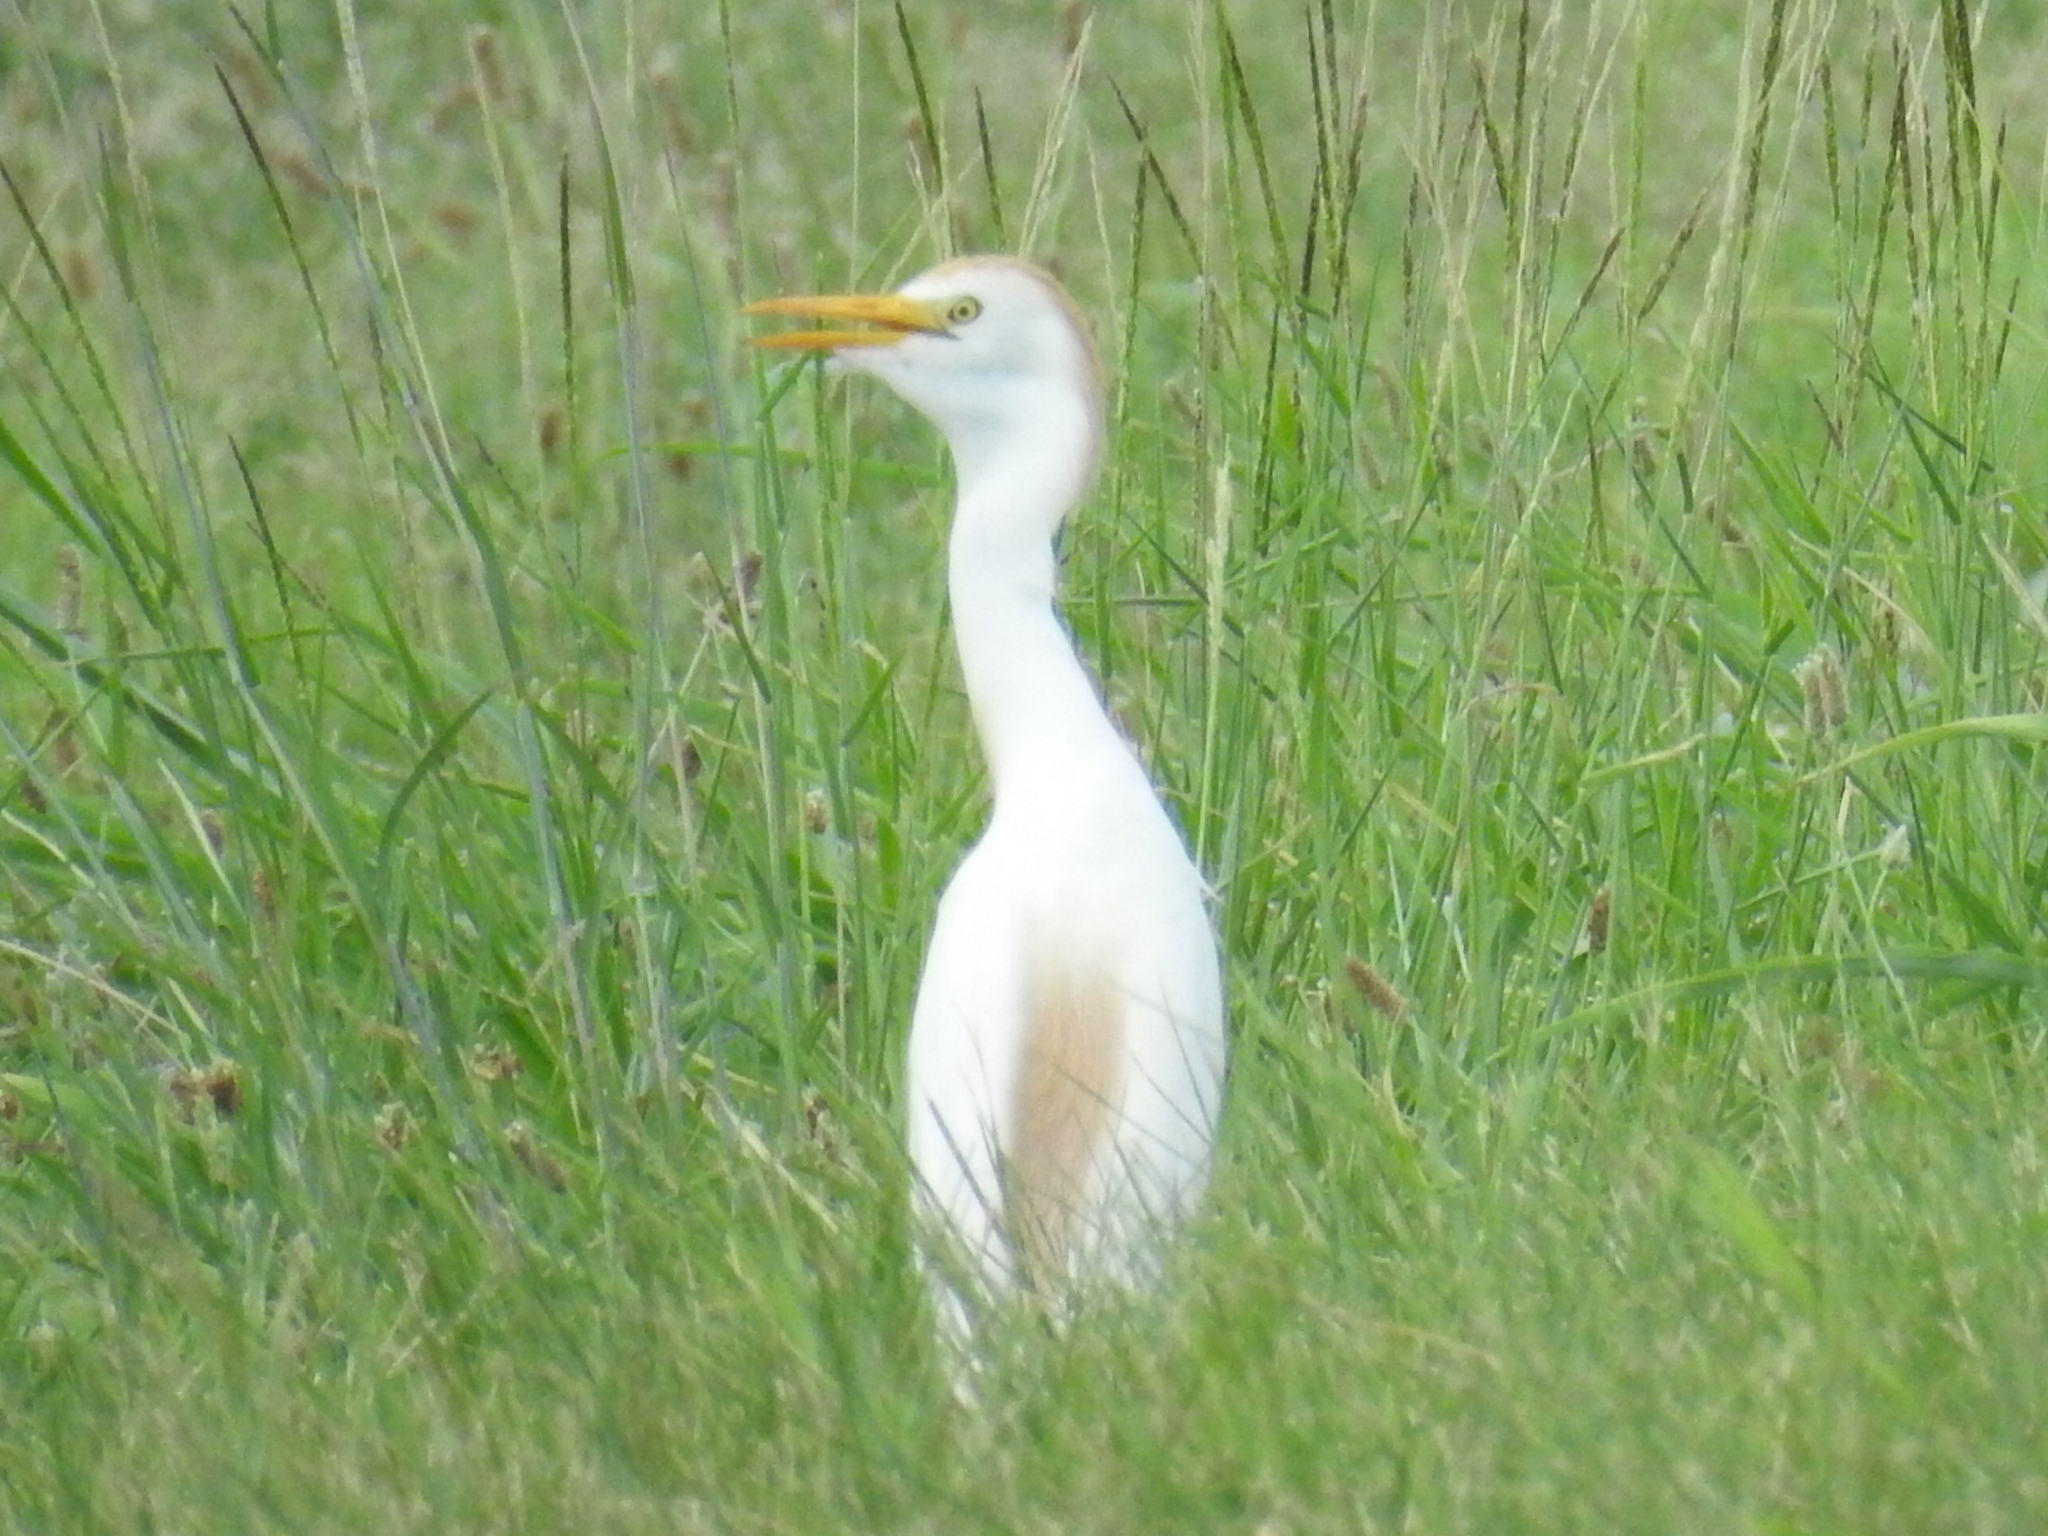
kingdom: Animalia
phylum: Chordata
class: Aves
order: Pelecaniformes
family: Ardeidae
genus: Bubulcus
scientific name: Bubulcus ibis
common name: Cattle egret
